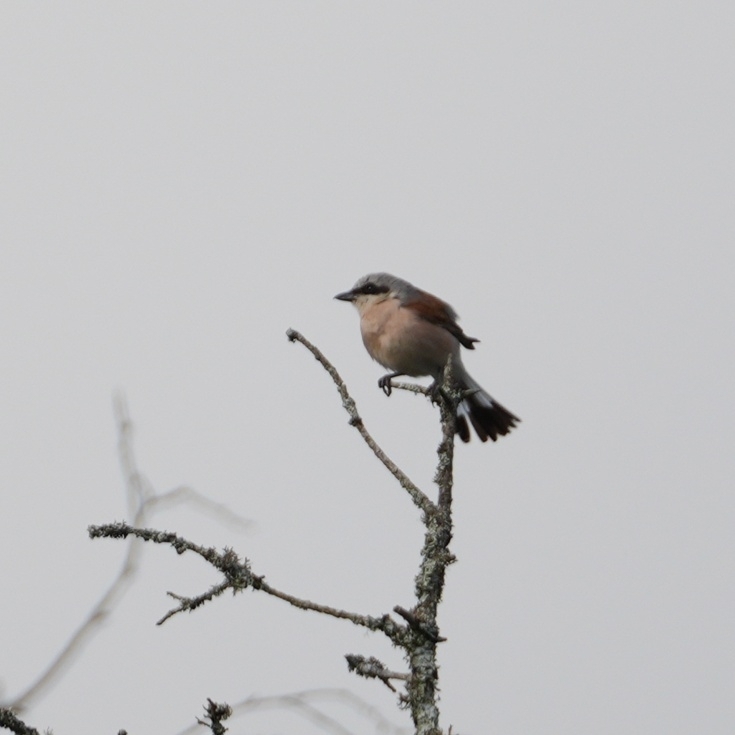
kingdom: Animalia
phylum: Chordata
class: Aves
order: Passeriformes
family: Laniidae
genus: Lanius
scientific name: Lanius collurio
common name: Red-backed shrike
